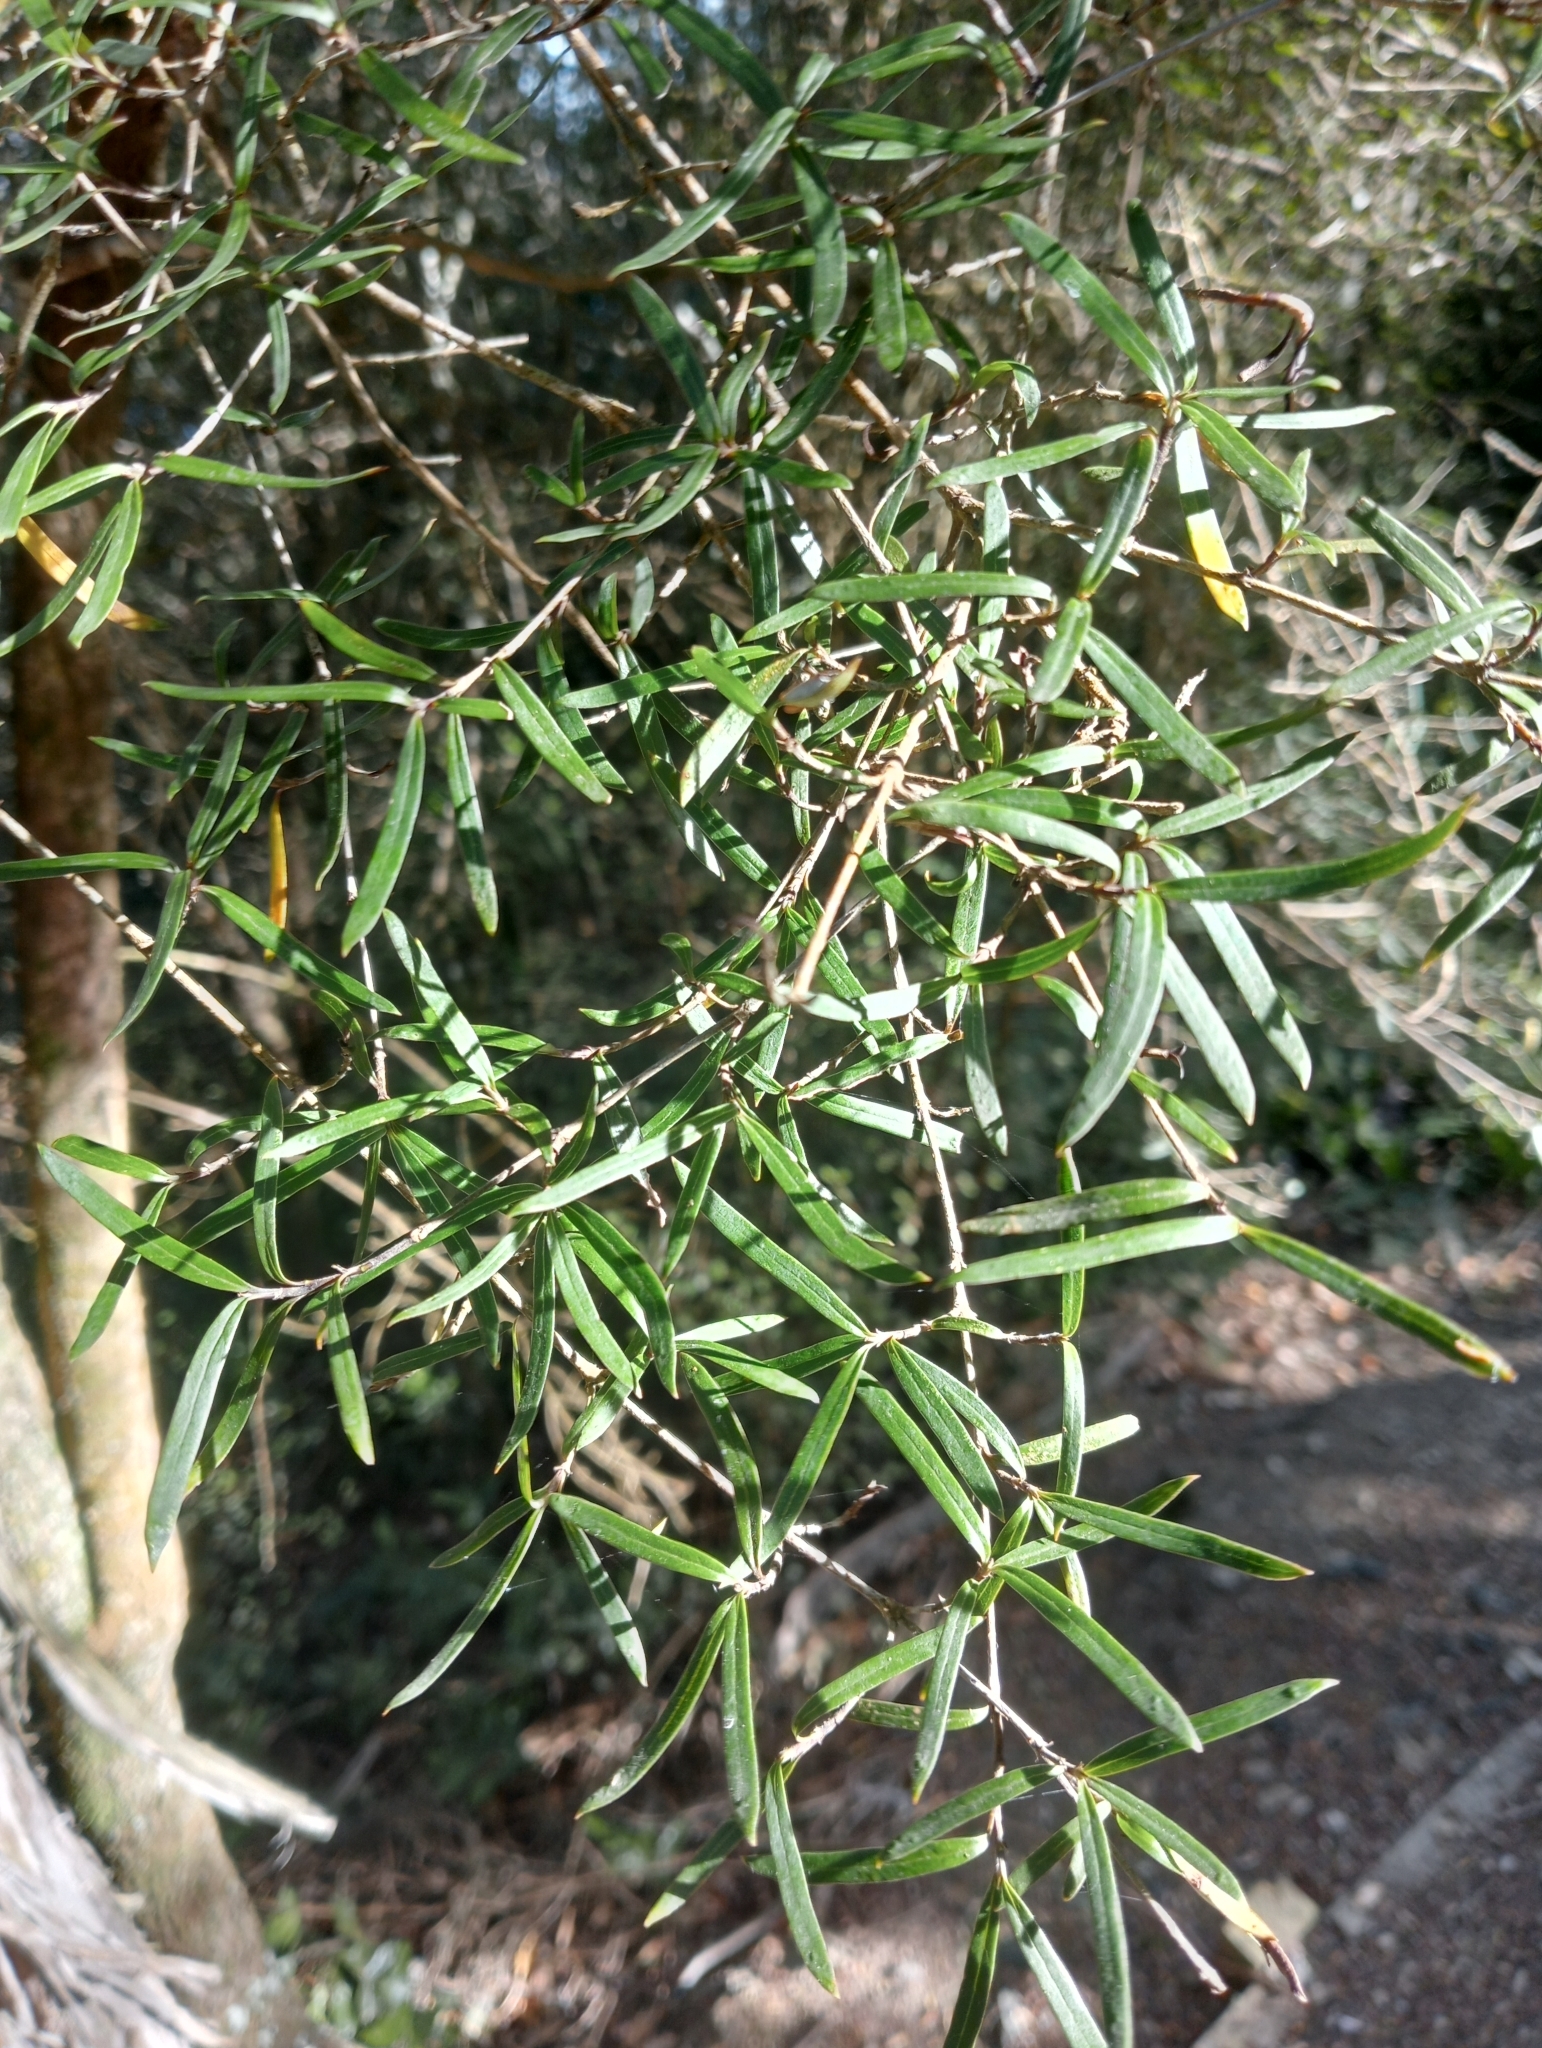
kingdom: Plantae
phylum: Tracheophyta
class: Magnoliopsida
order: Gentianales
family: Rubiaceae
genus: Coprosma
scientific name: Coprosma linariifolia
